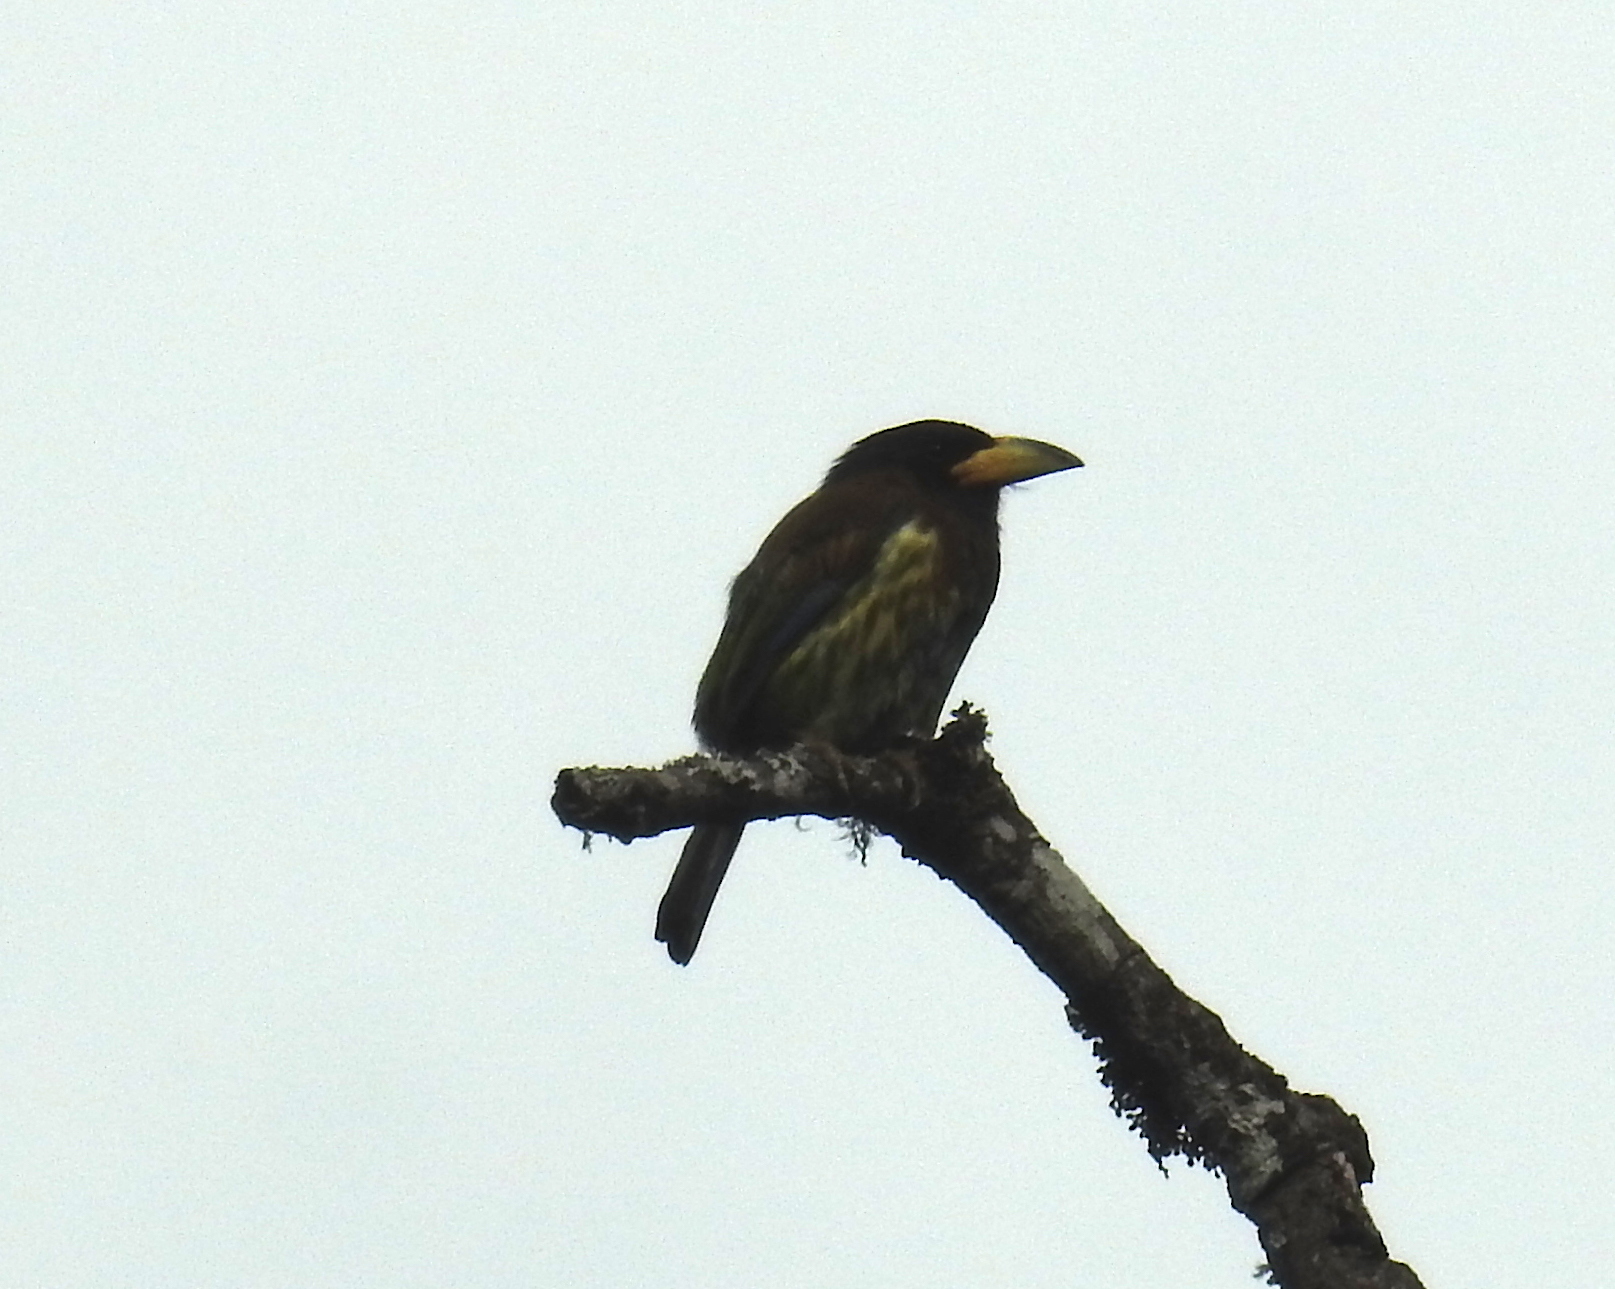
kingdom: Animalia
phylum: Chordata
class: Aves
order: Piciformes
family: Megalaimidae
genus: Psilopogon
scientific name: Psilopogon virens
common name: Great barbet
